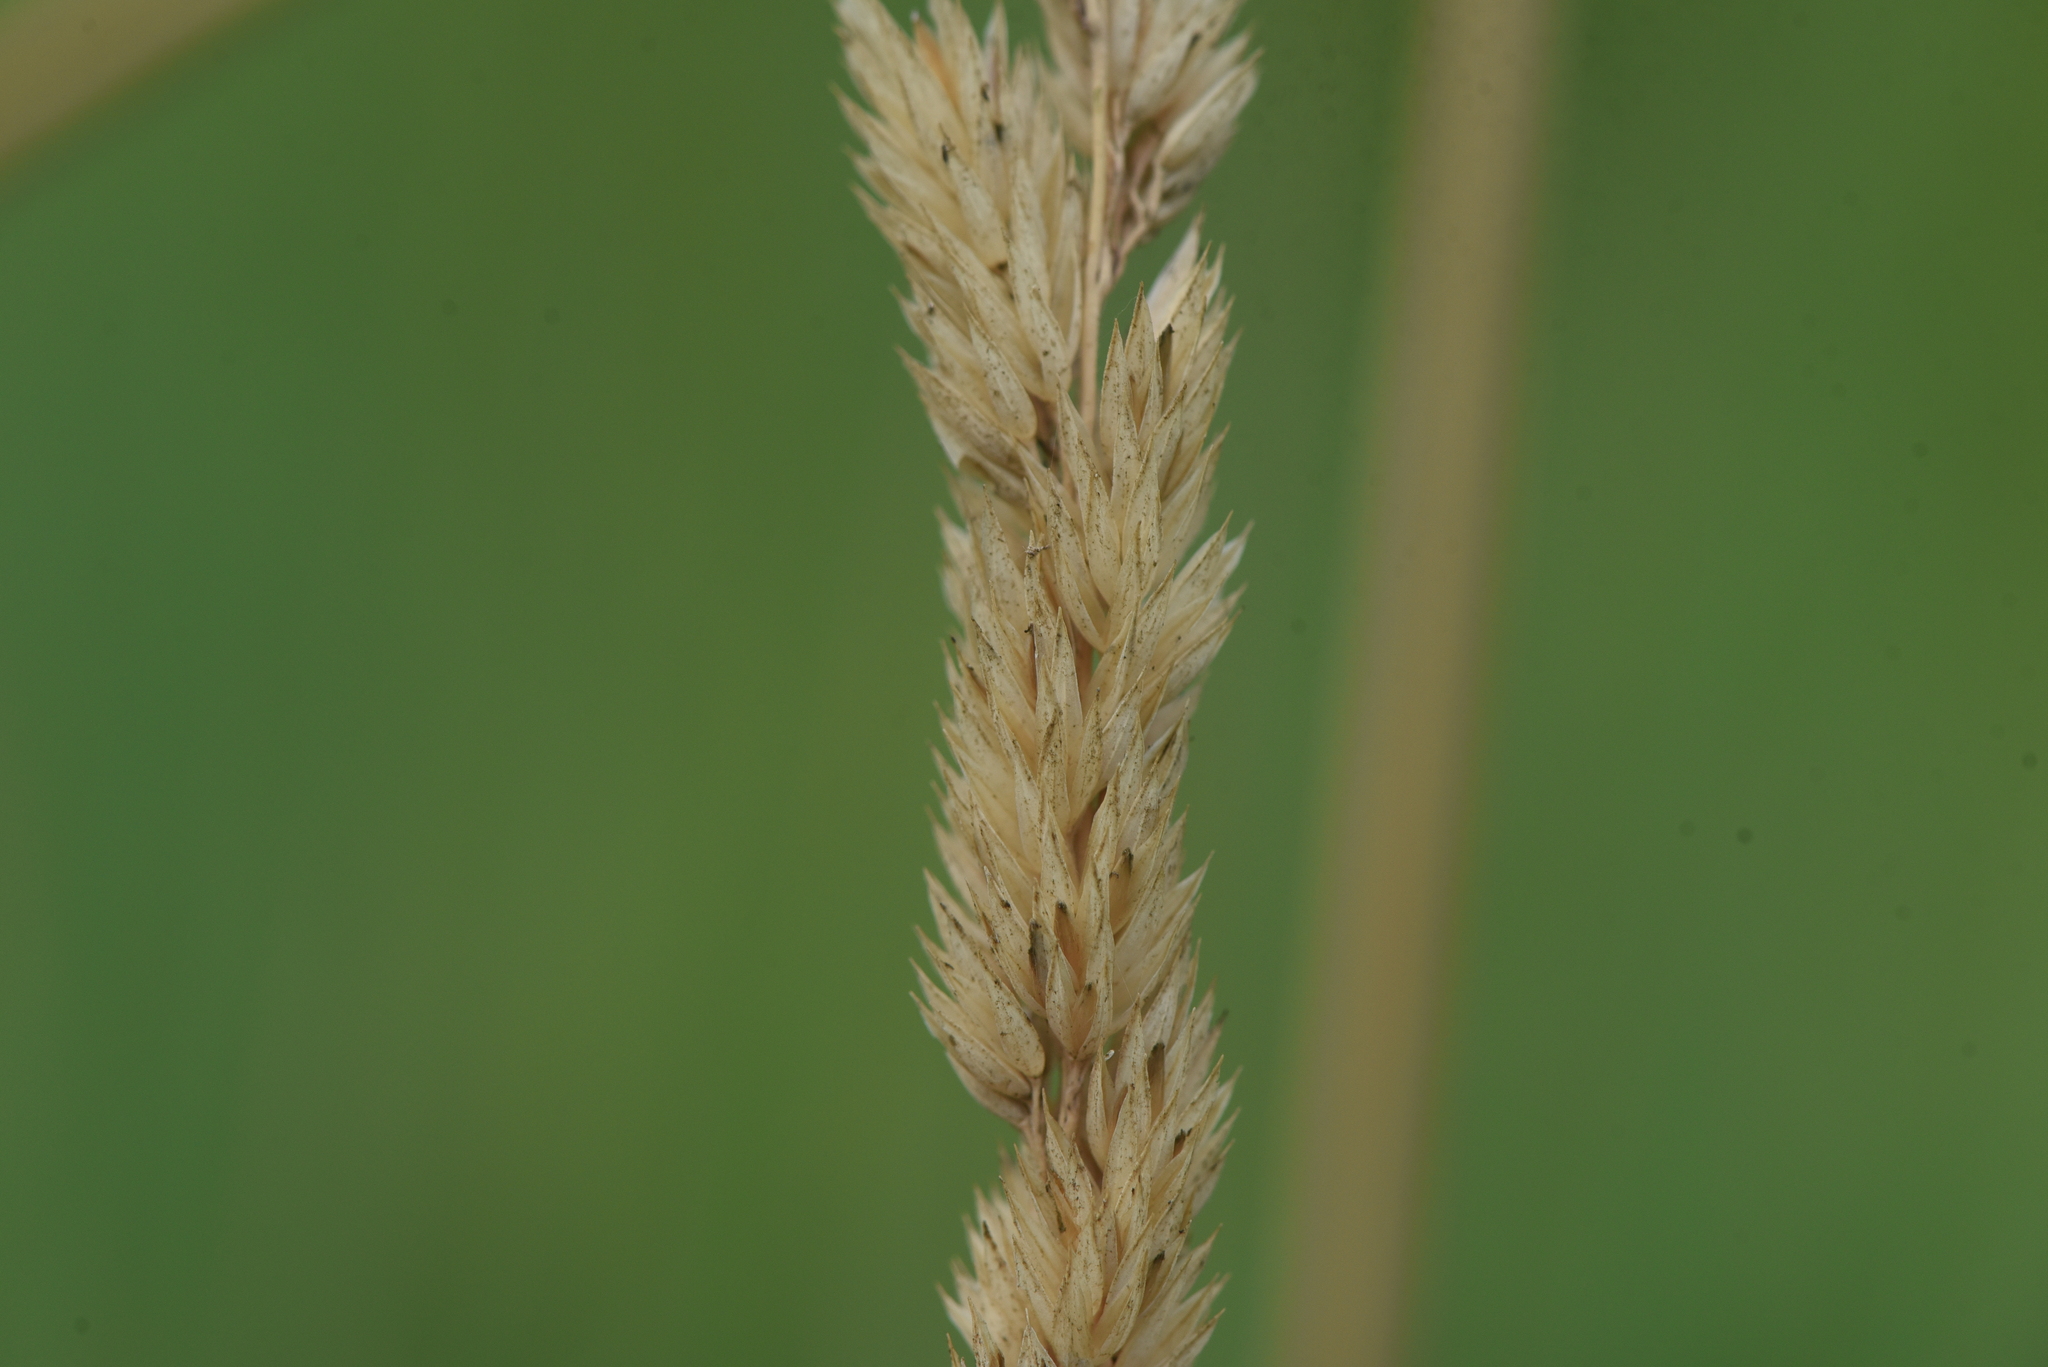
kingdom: Plantae
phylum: Tracheophyta
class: Liliopsida
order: Poales
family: Poaceae
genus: Phalaris
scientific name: Phalaris arundinacea
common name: Reed canary-grass
